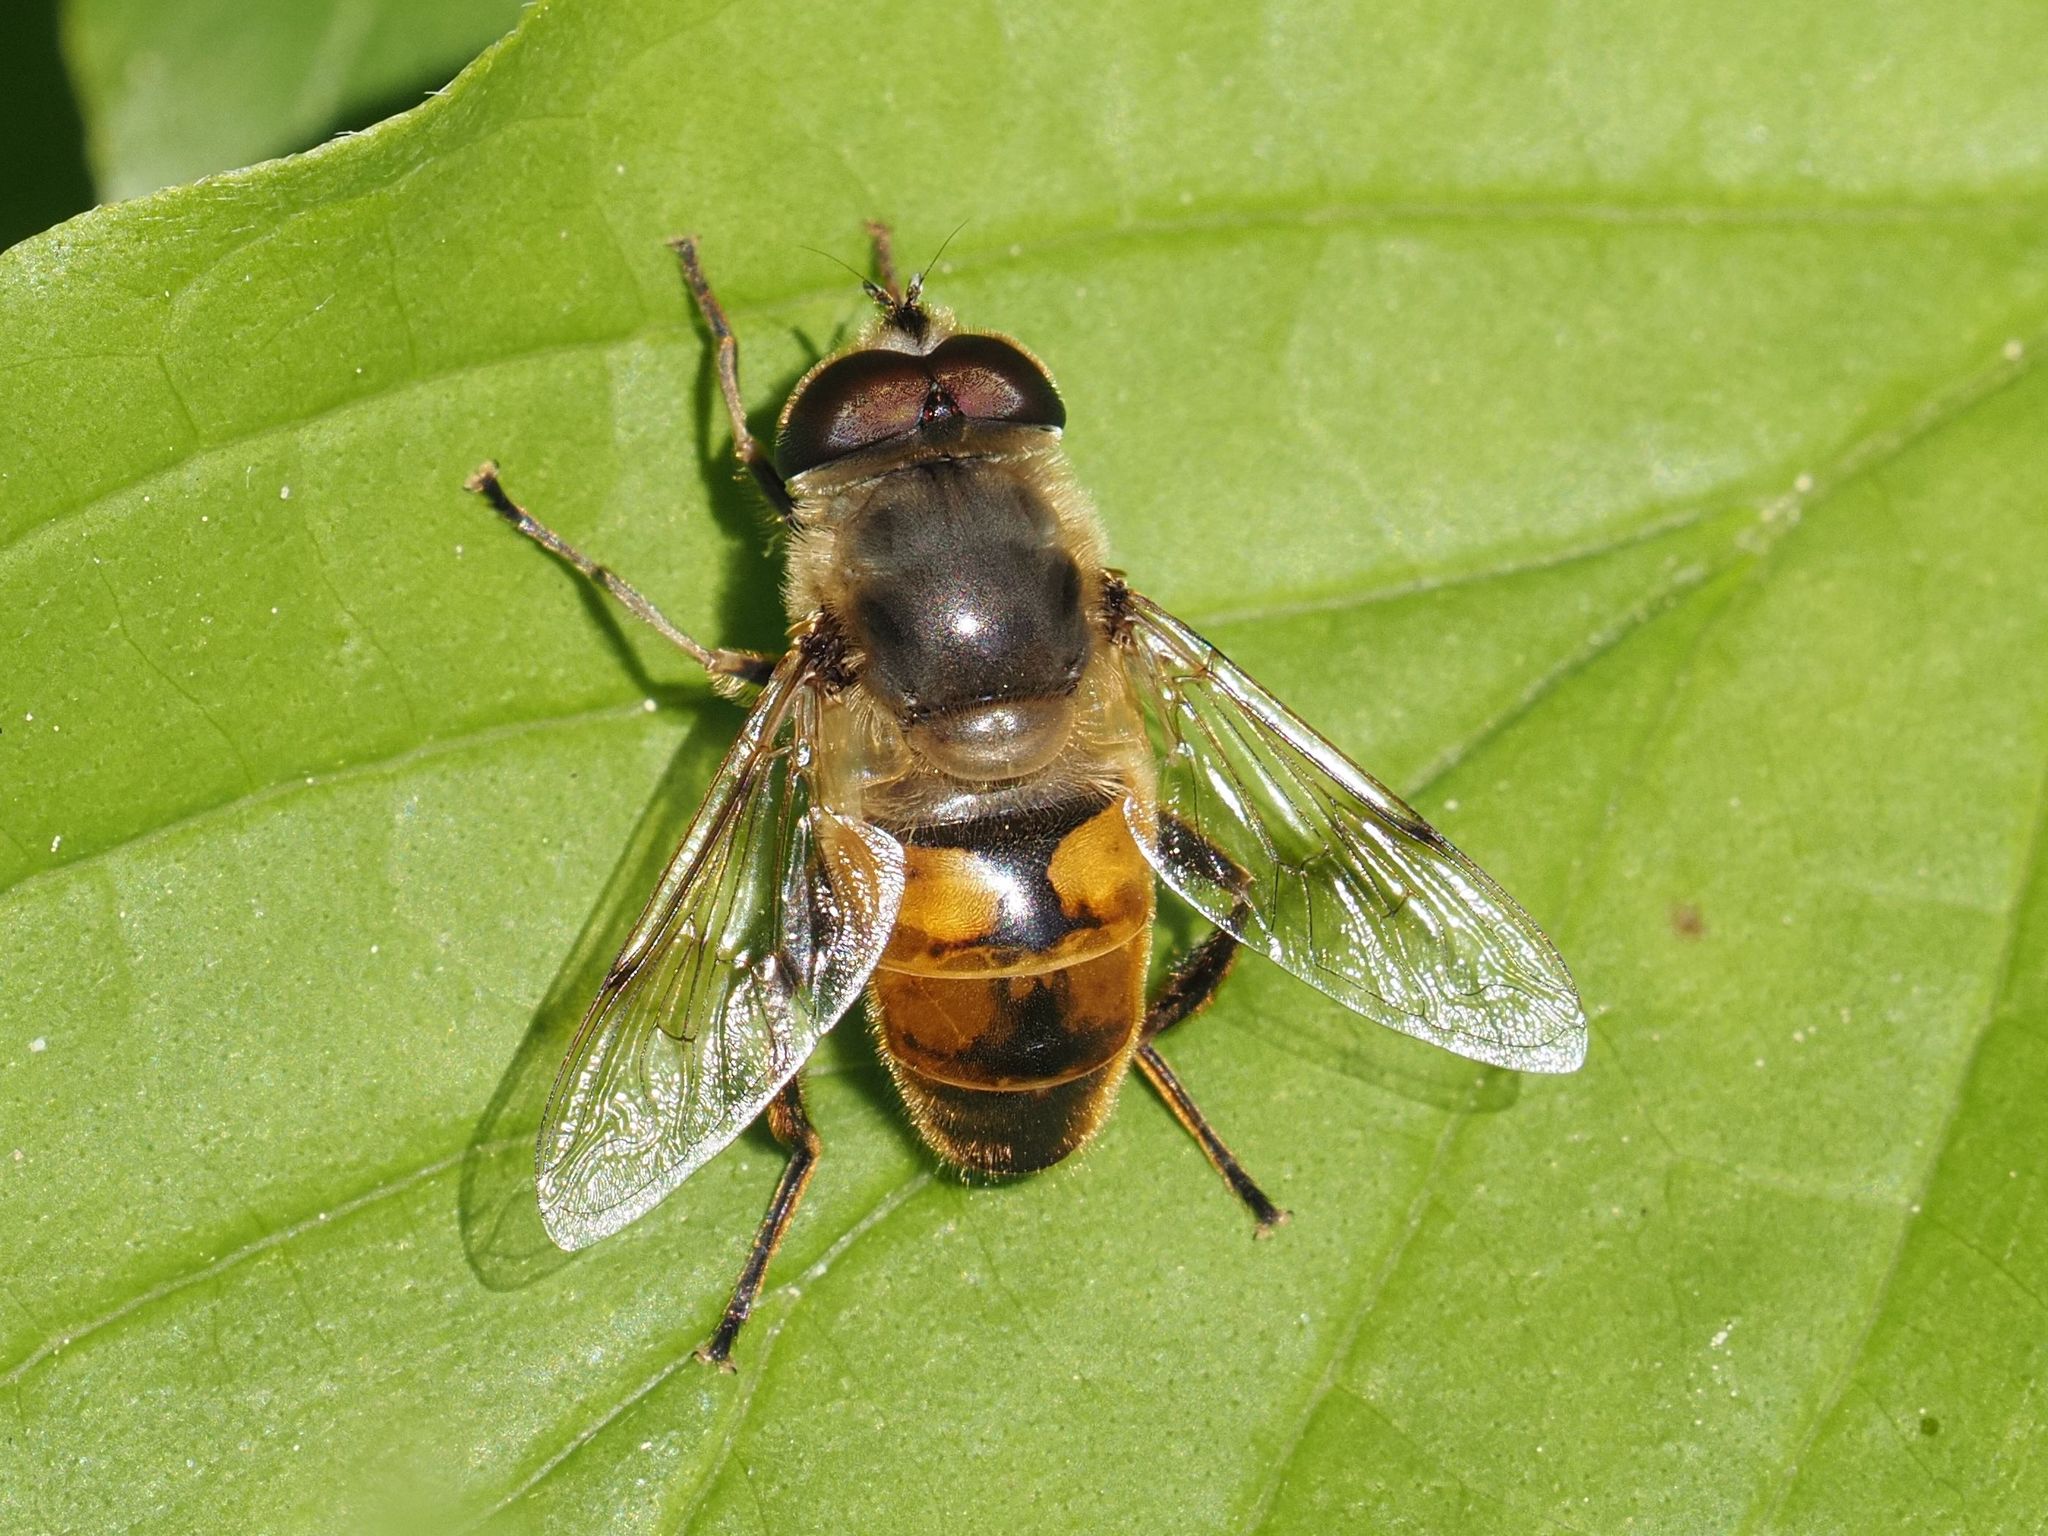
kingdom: Animalia
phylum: Arthropoda
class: Insecta
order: Diptera
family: Syrphidae
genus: Eristalis
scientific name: Eristalis tenax
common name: Drone fly
